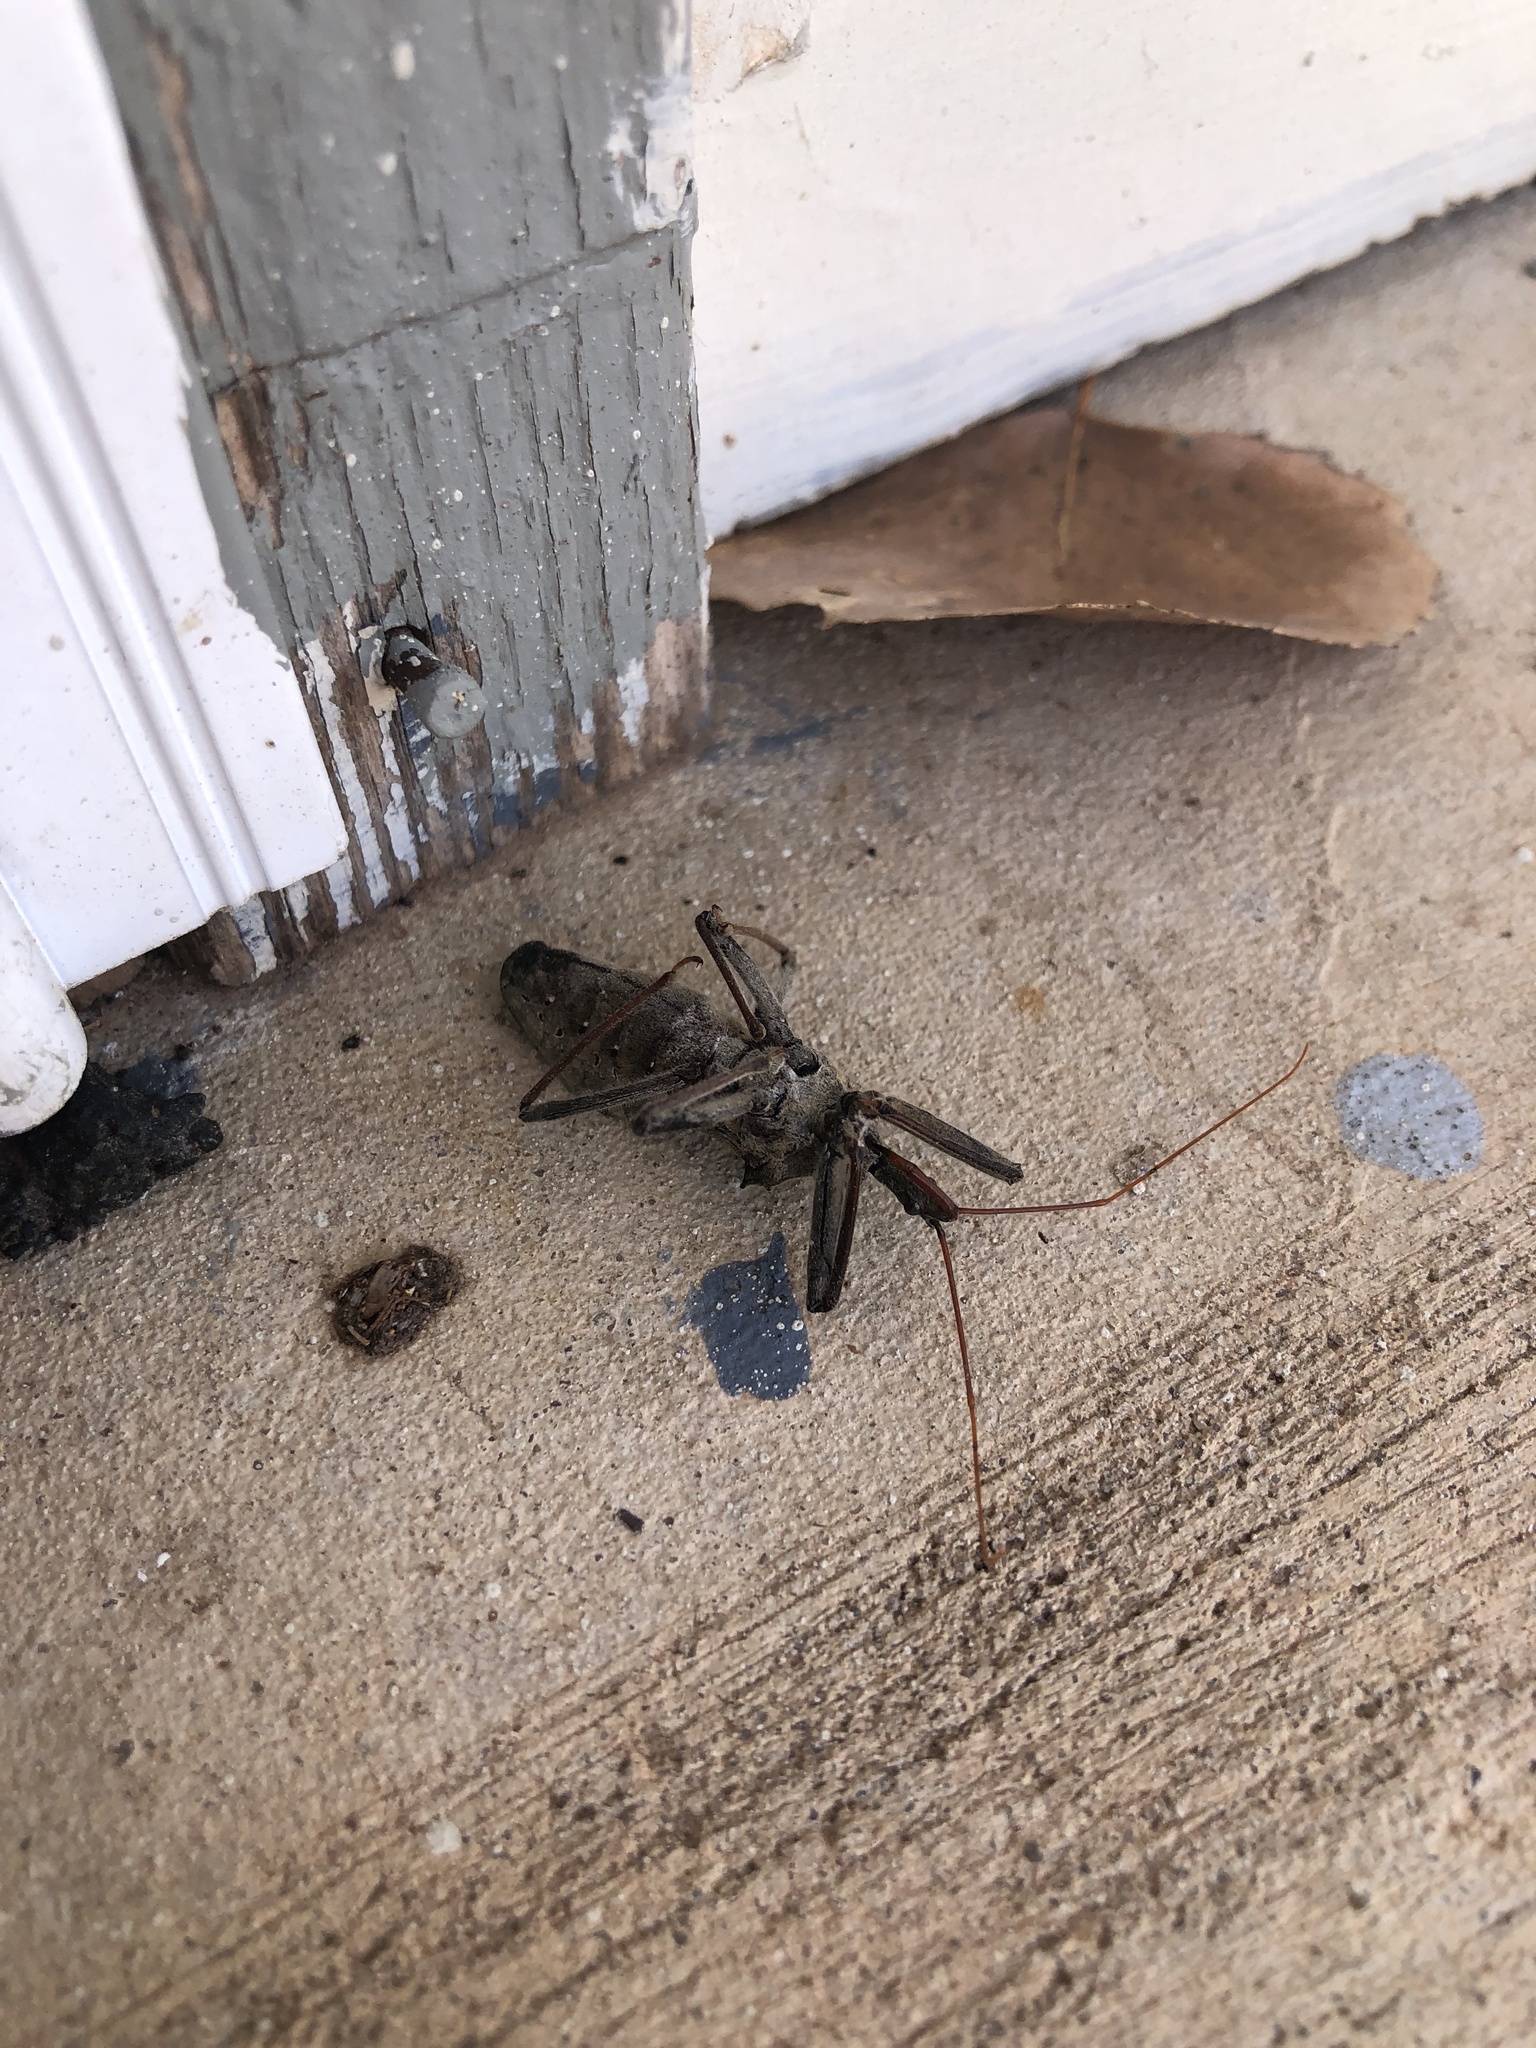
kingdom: Animalia
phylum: Arthropoda
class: Insecta
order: Hemiptera
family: Reduviidae
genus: Arilus
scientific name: Arilus cristatus
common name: North american wheel bug
